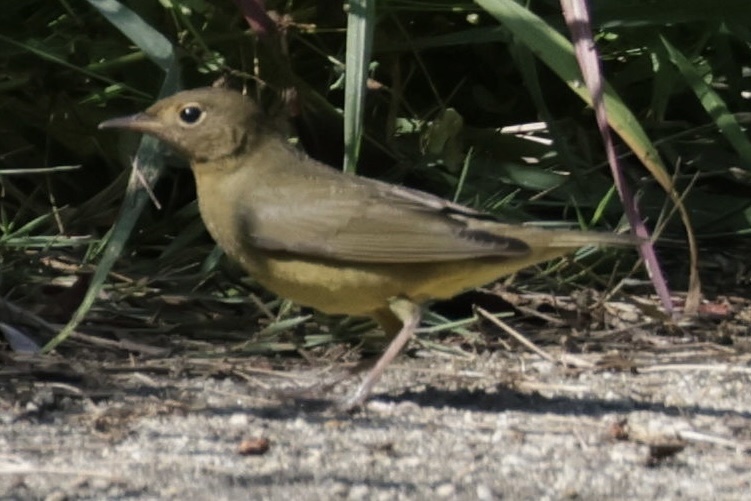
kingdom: Animalia
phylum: Chordata
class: Aves
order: Passeriformes
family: Parulidae
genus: Oporornis
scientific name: Oporornis agilis
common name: Connecticut warbler
